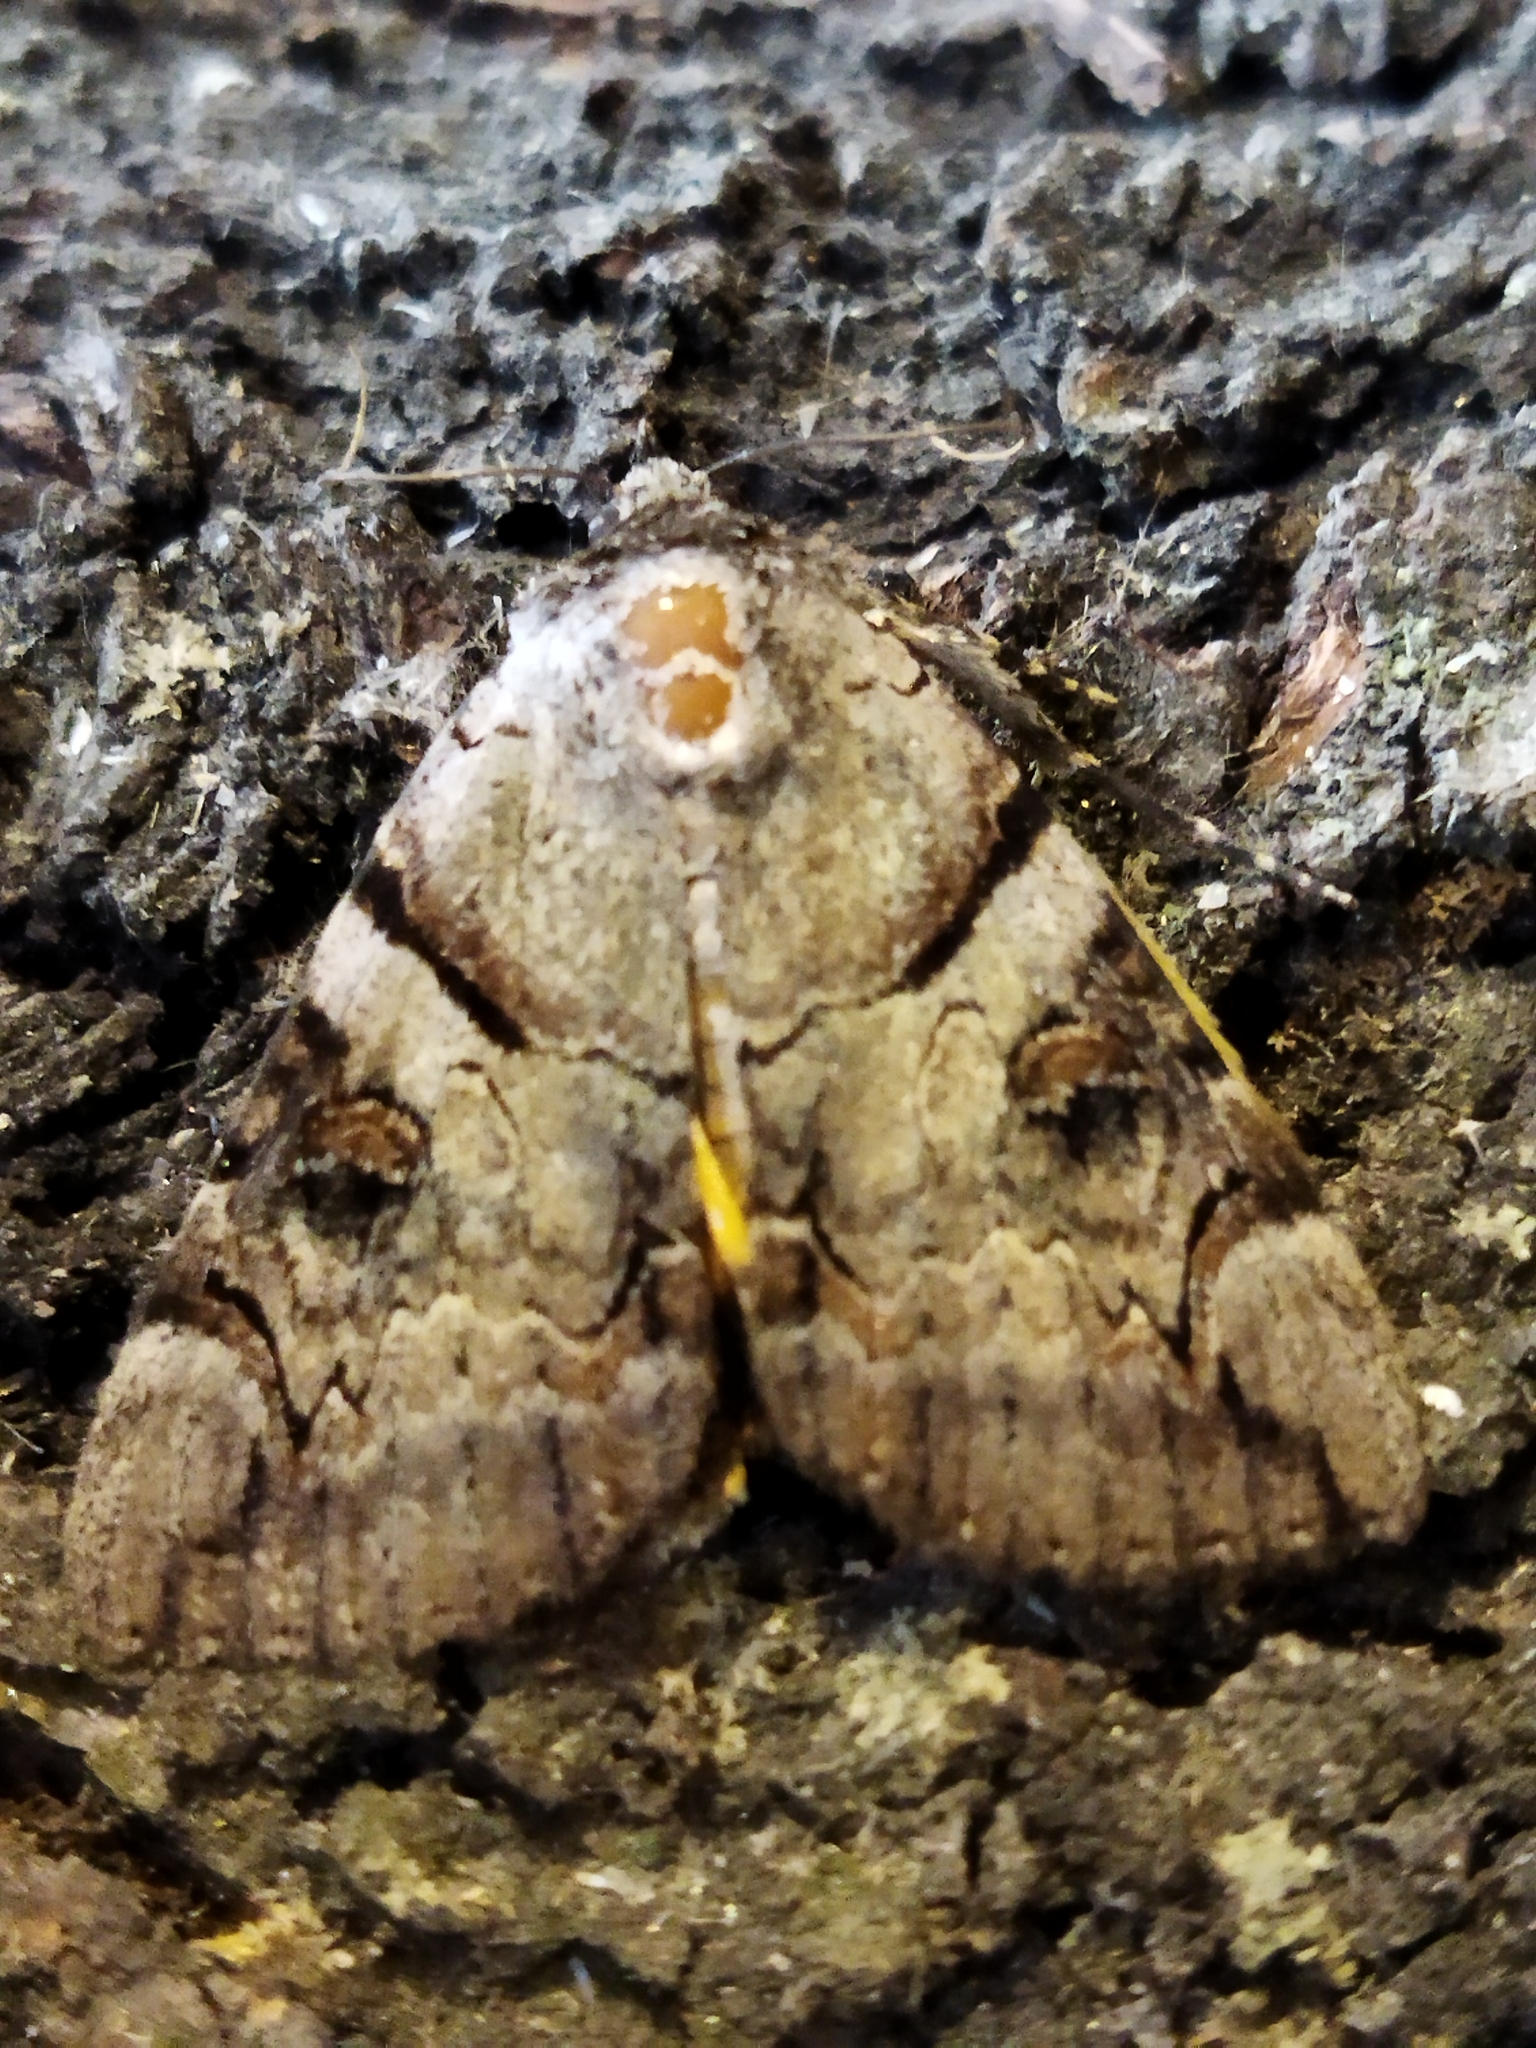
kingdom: Animalia
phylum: Arthropoda
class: Insecta
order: Lepidoptera
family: Erebidae
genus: Catocala
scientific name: Catocala hymenaea
